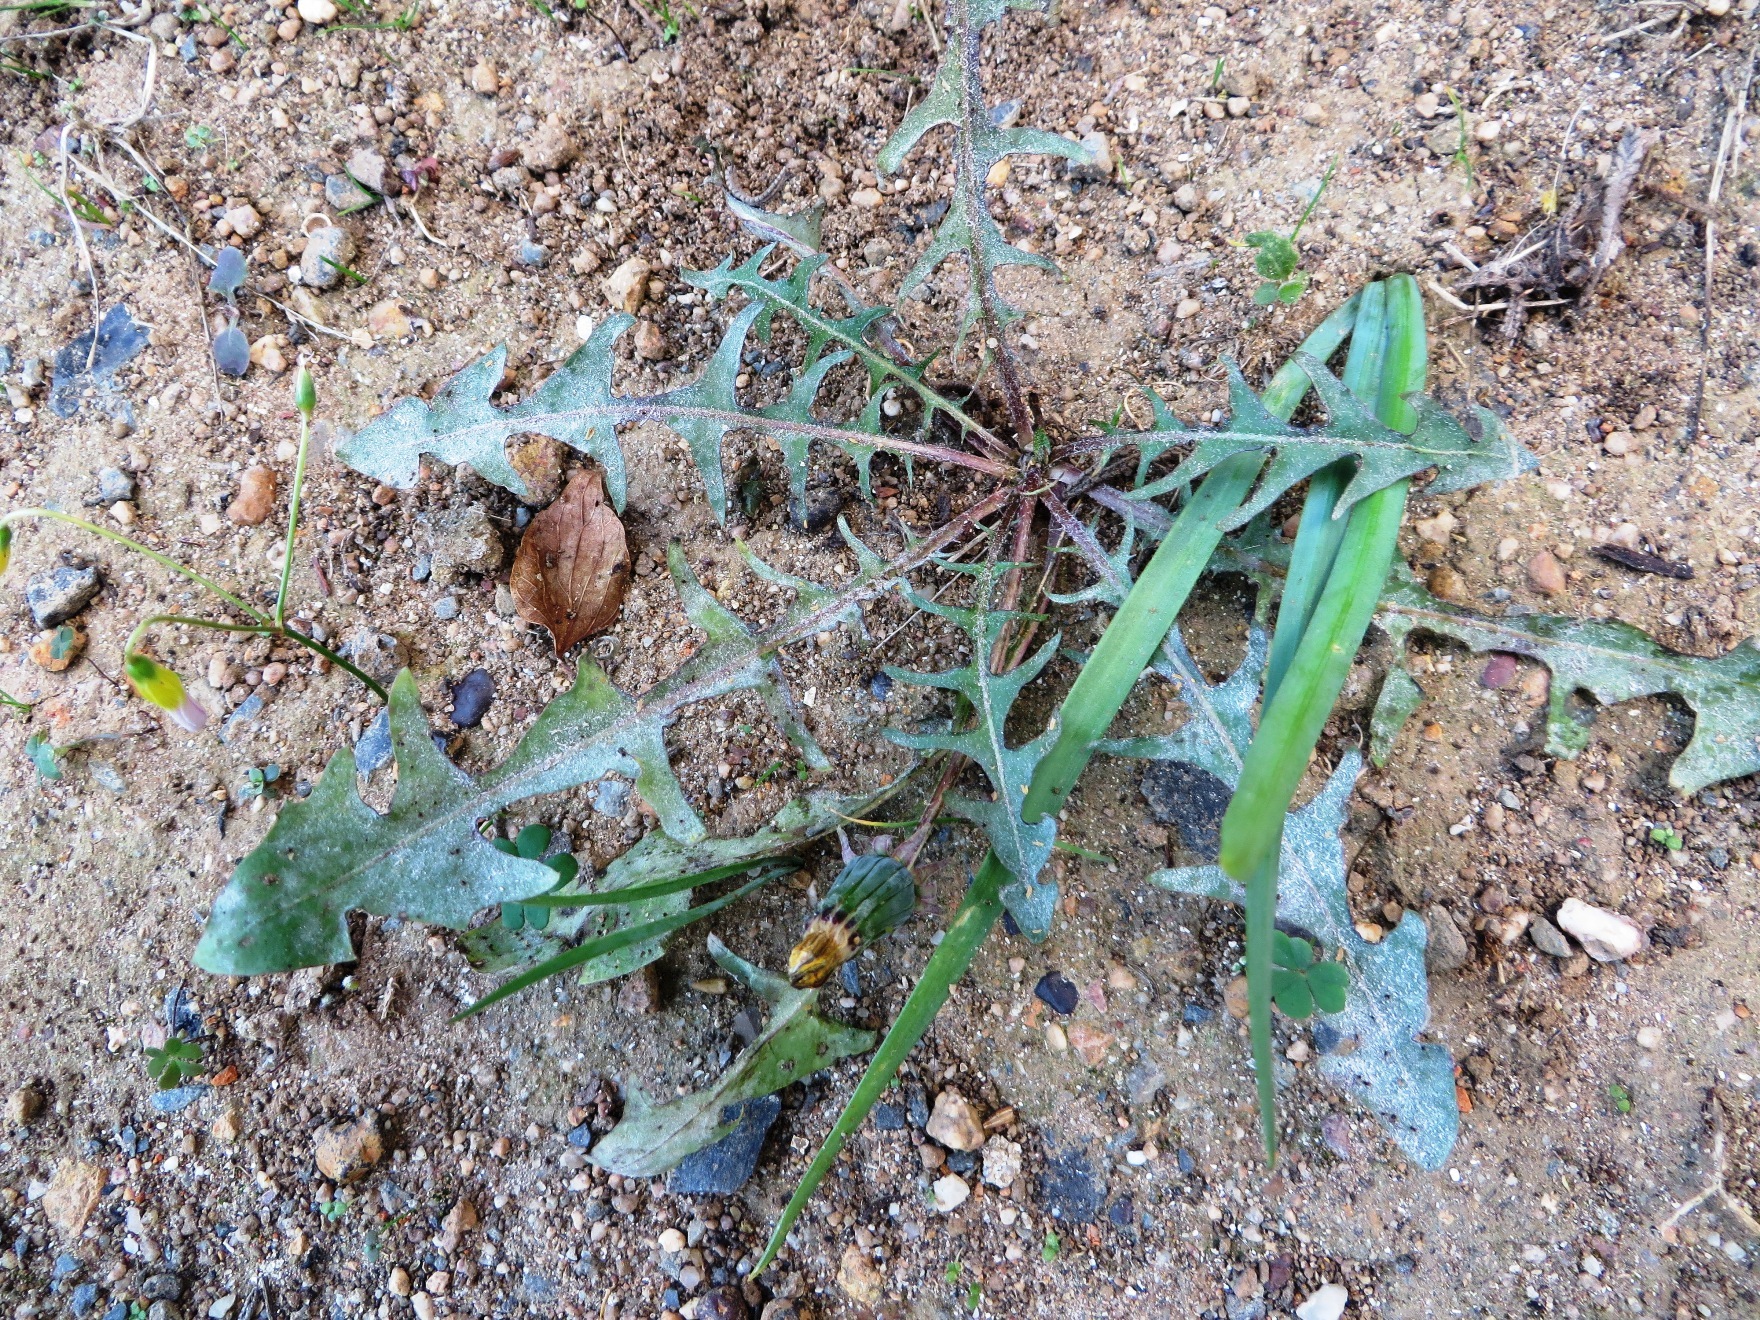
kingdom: Plantae
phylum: Tracheophyta
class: Magnoliopsida
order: Asterales
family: Asteraceae
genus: Taraxacum
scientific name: Taraxacum officinale
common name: Common dandelion
